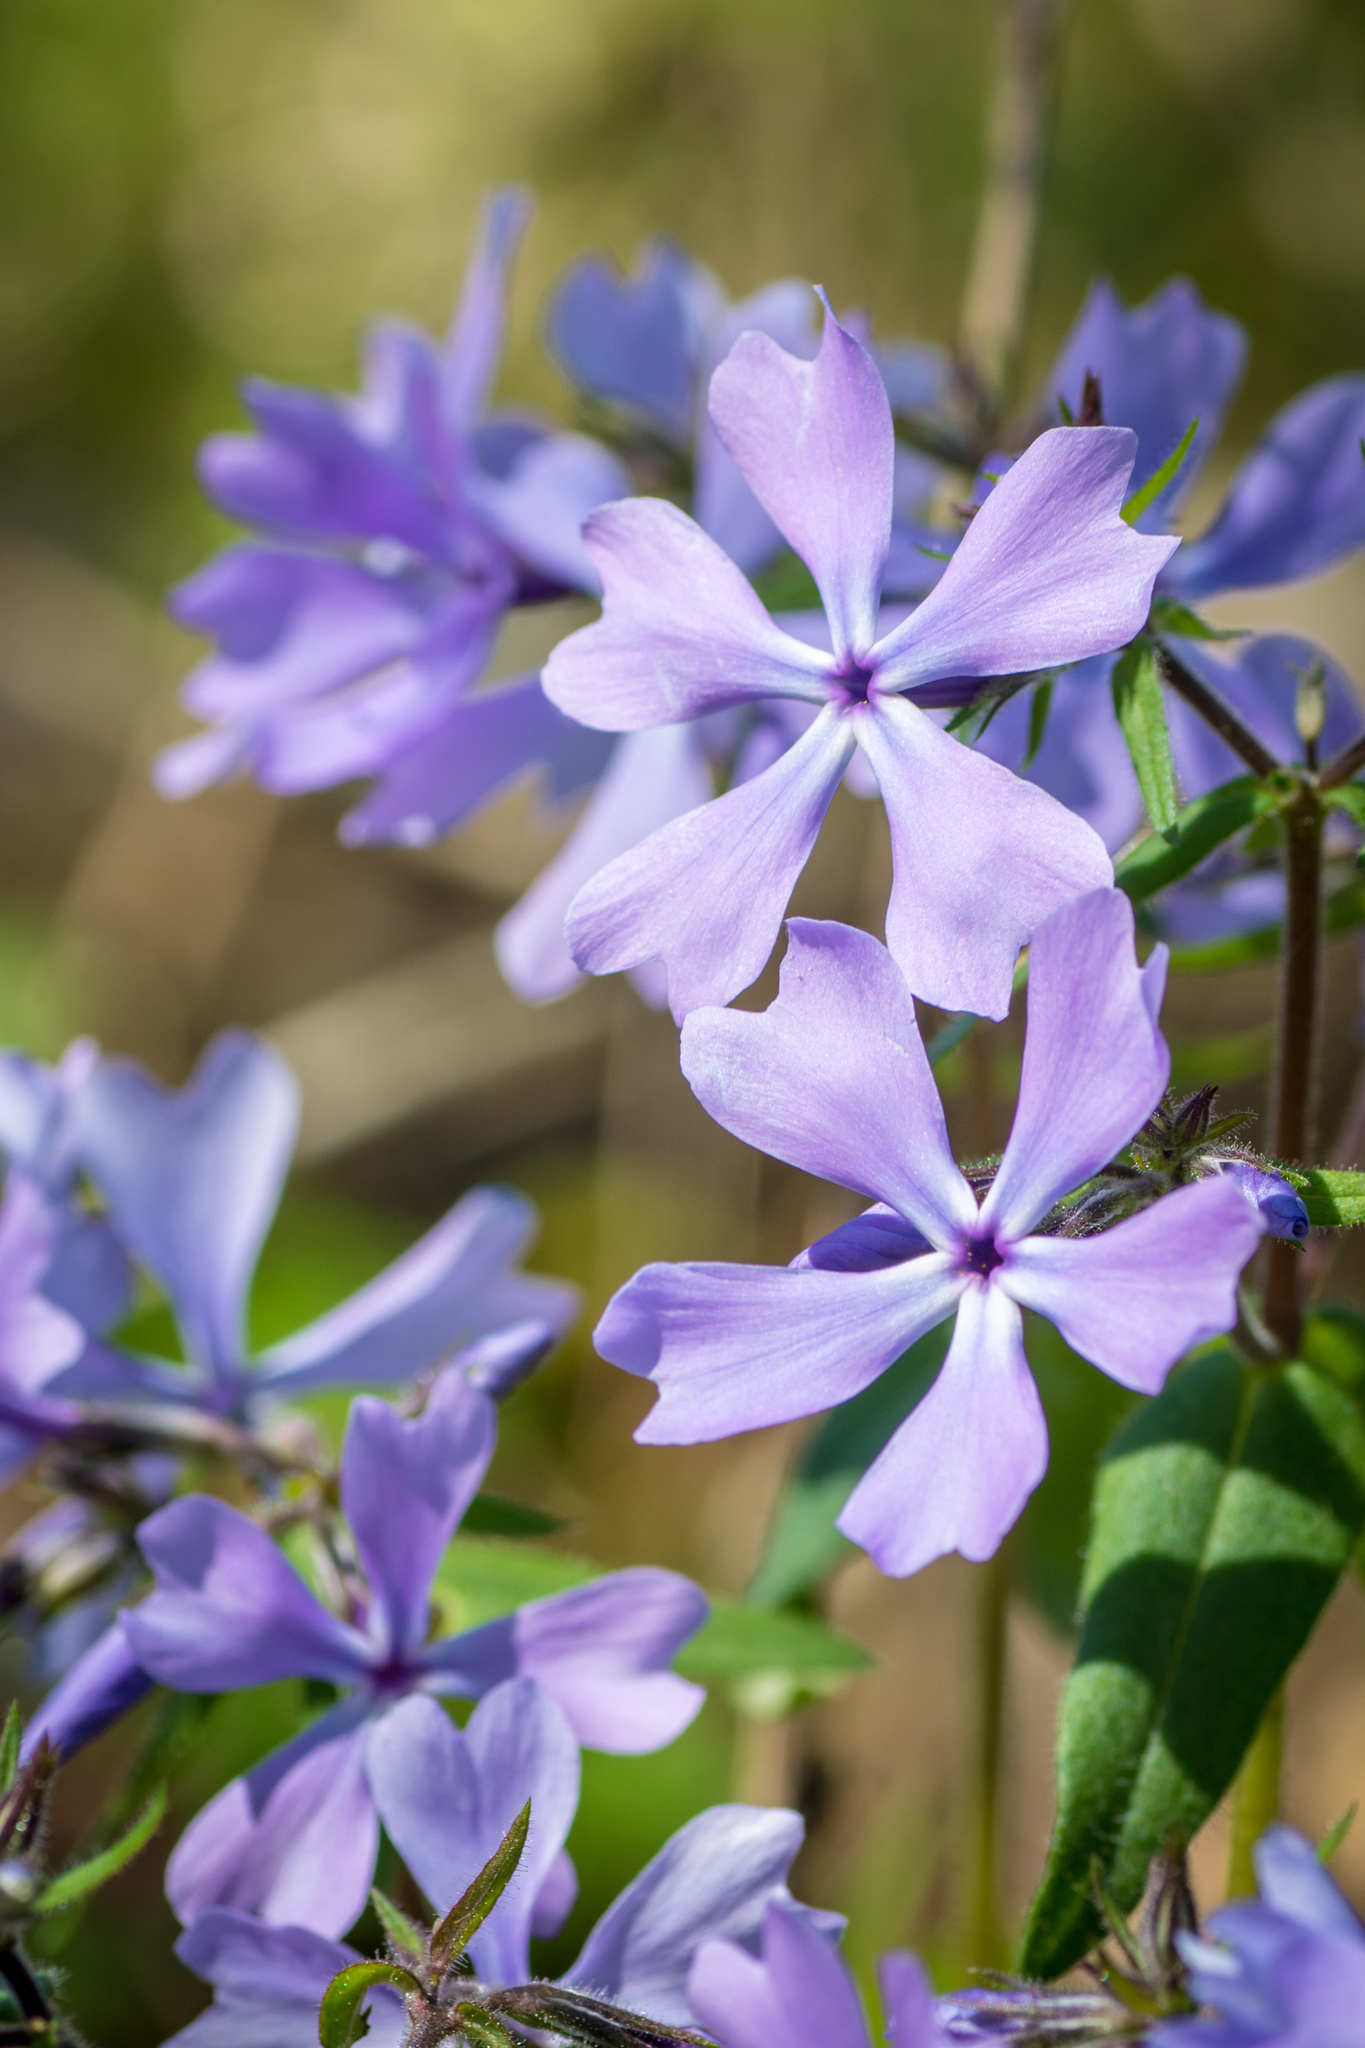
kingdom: Plantae
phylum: Tracheophyta
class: Magnoliopsida
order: Ericales
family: Polemoniaceae
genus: Phlox
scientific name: Phlox divaricata
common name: Blue phlox
